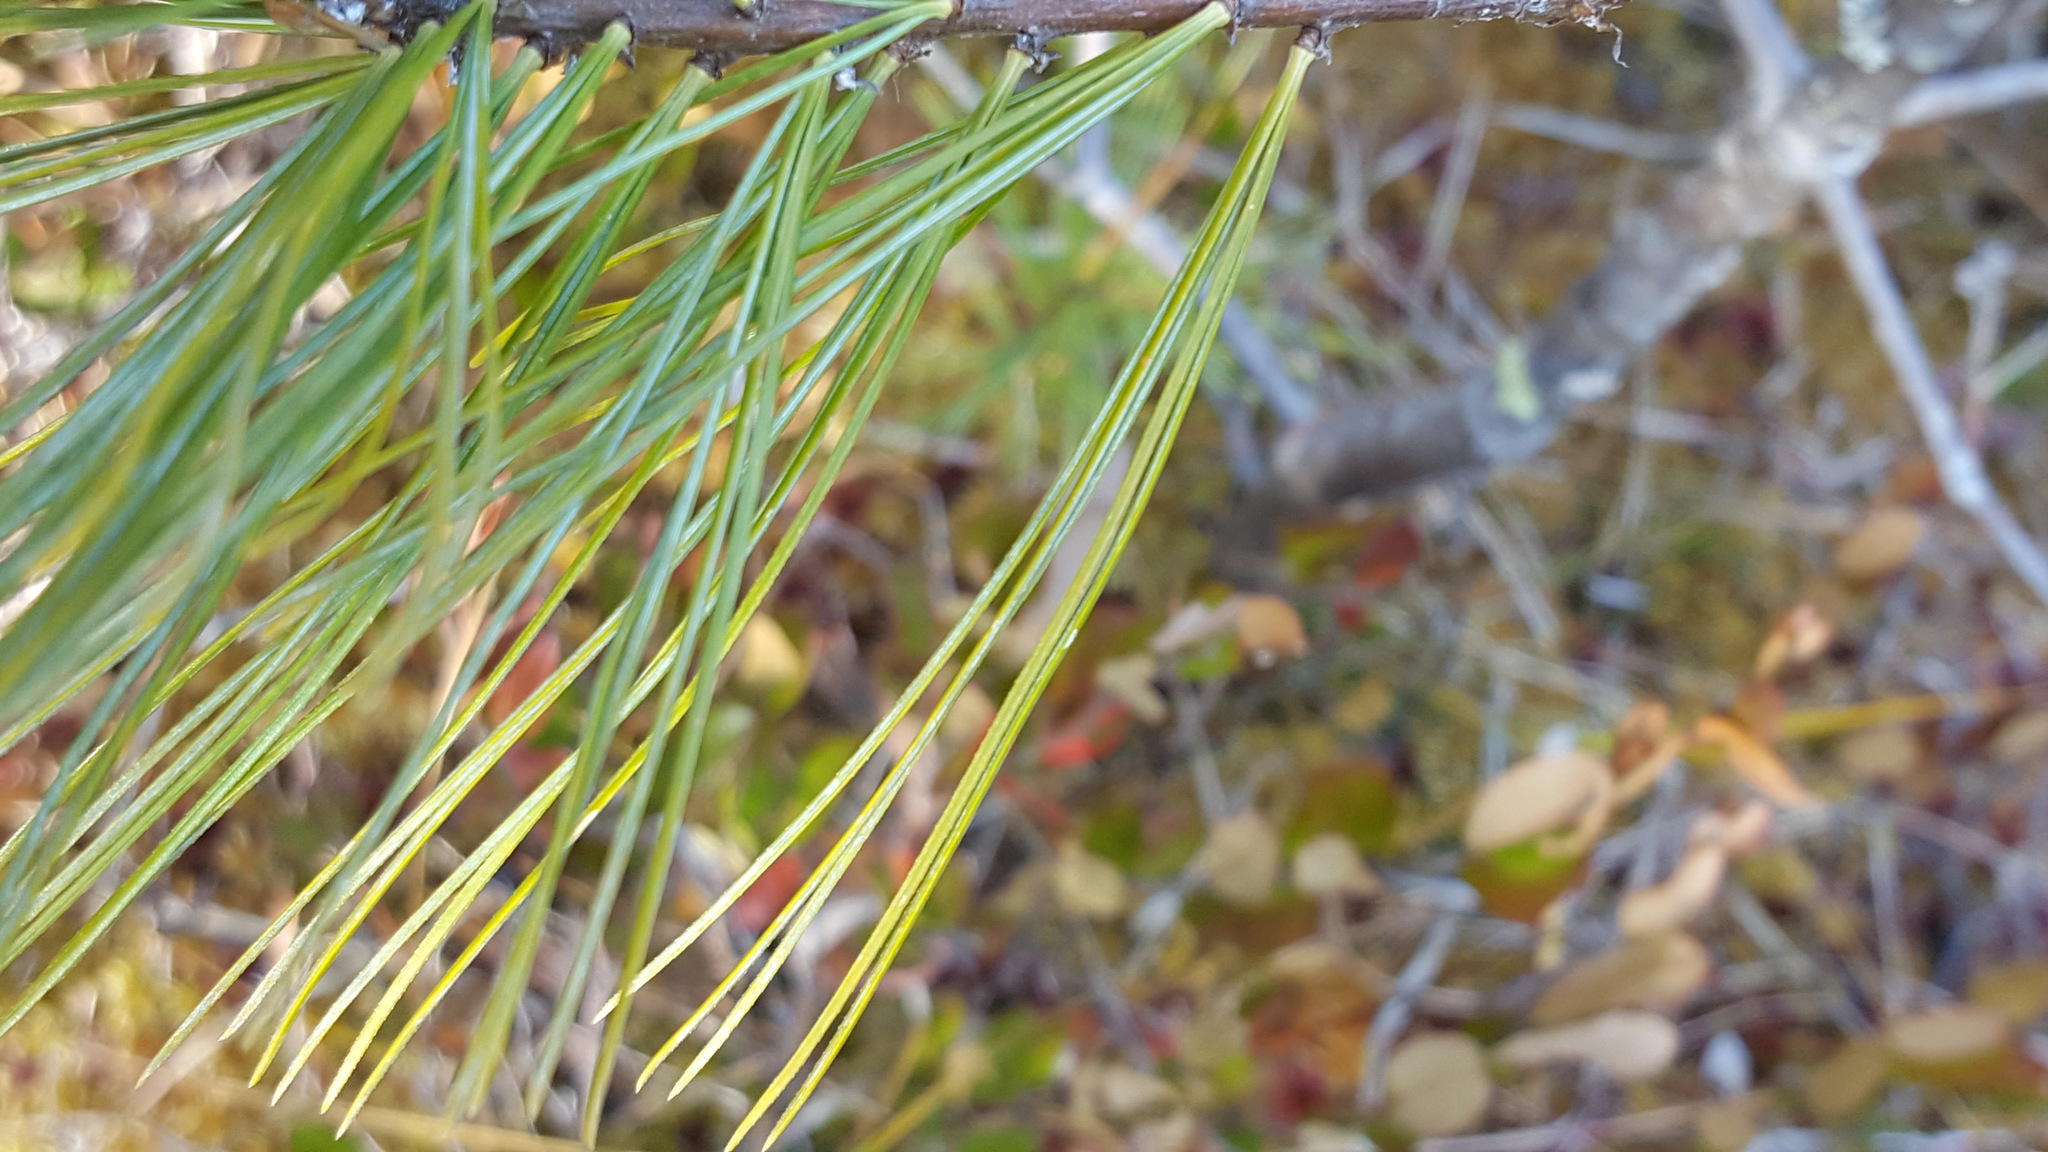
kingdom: Plantae
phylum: Tracheophyta
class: Pinopsida
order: Pinales
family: Pinaceae
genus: Pinus
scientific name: Pinus strobus
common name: Weymouth pine
